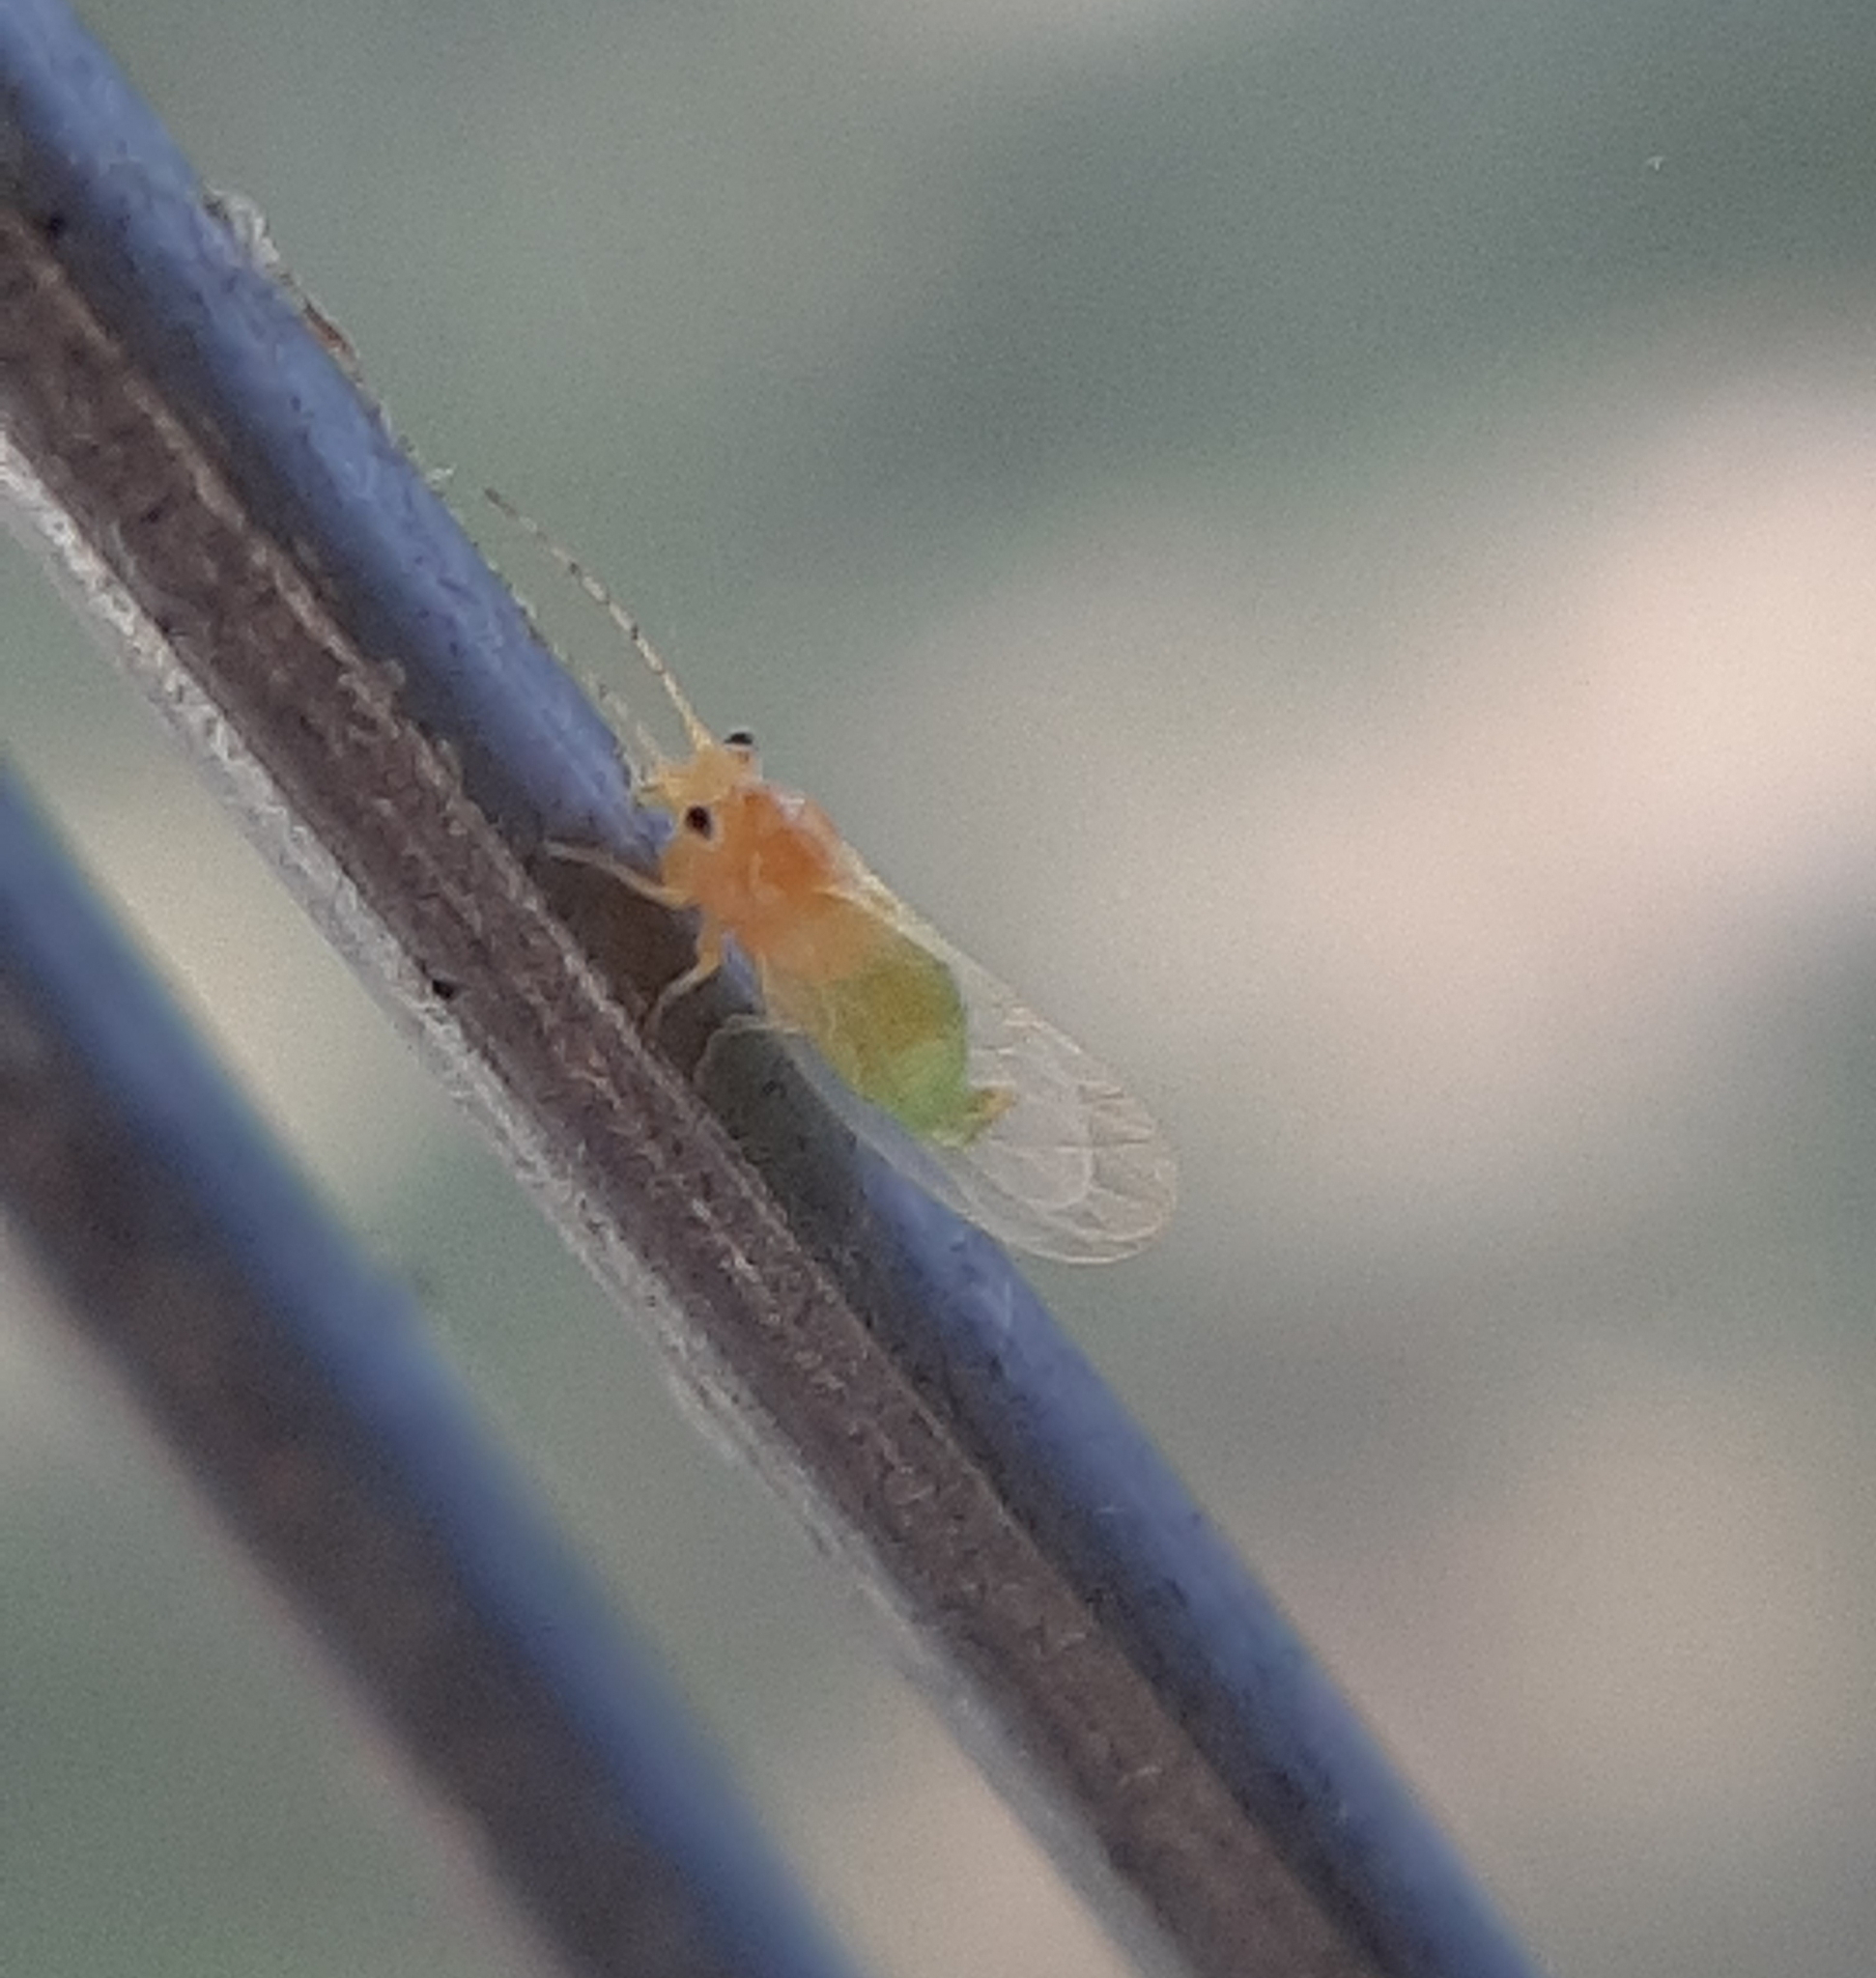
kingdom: Animalia
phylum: Arthropoda
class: Insecta
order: Hemiptera
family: Psyllidae
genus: Cacopsylla
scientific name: Cacopsylla annulata
